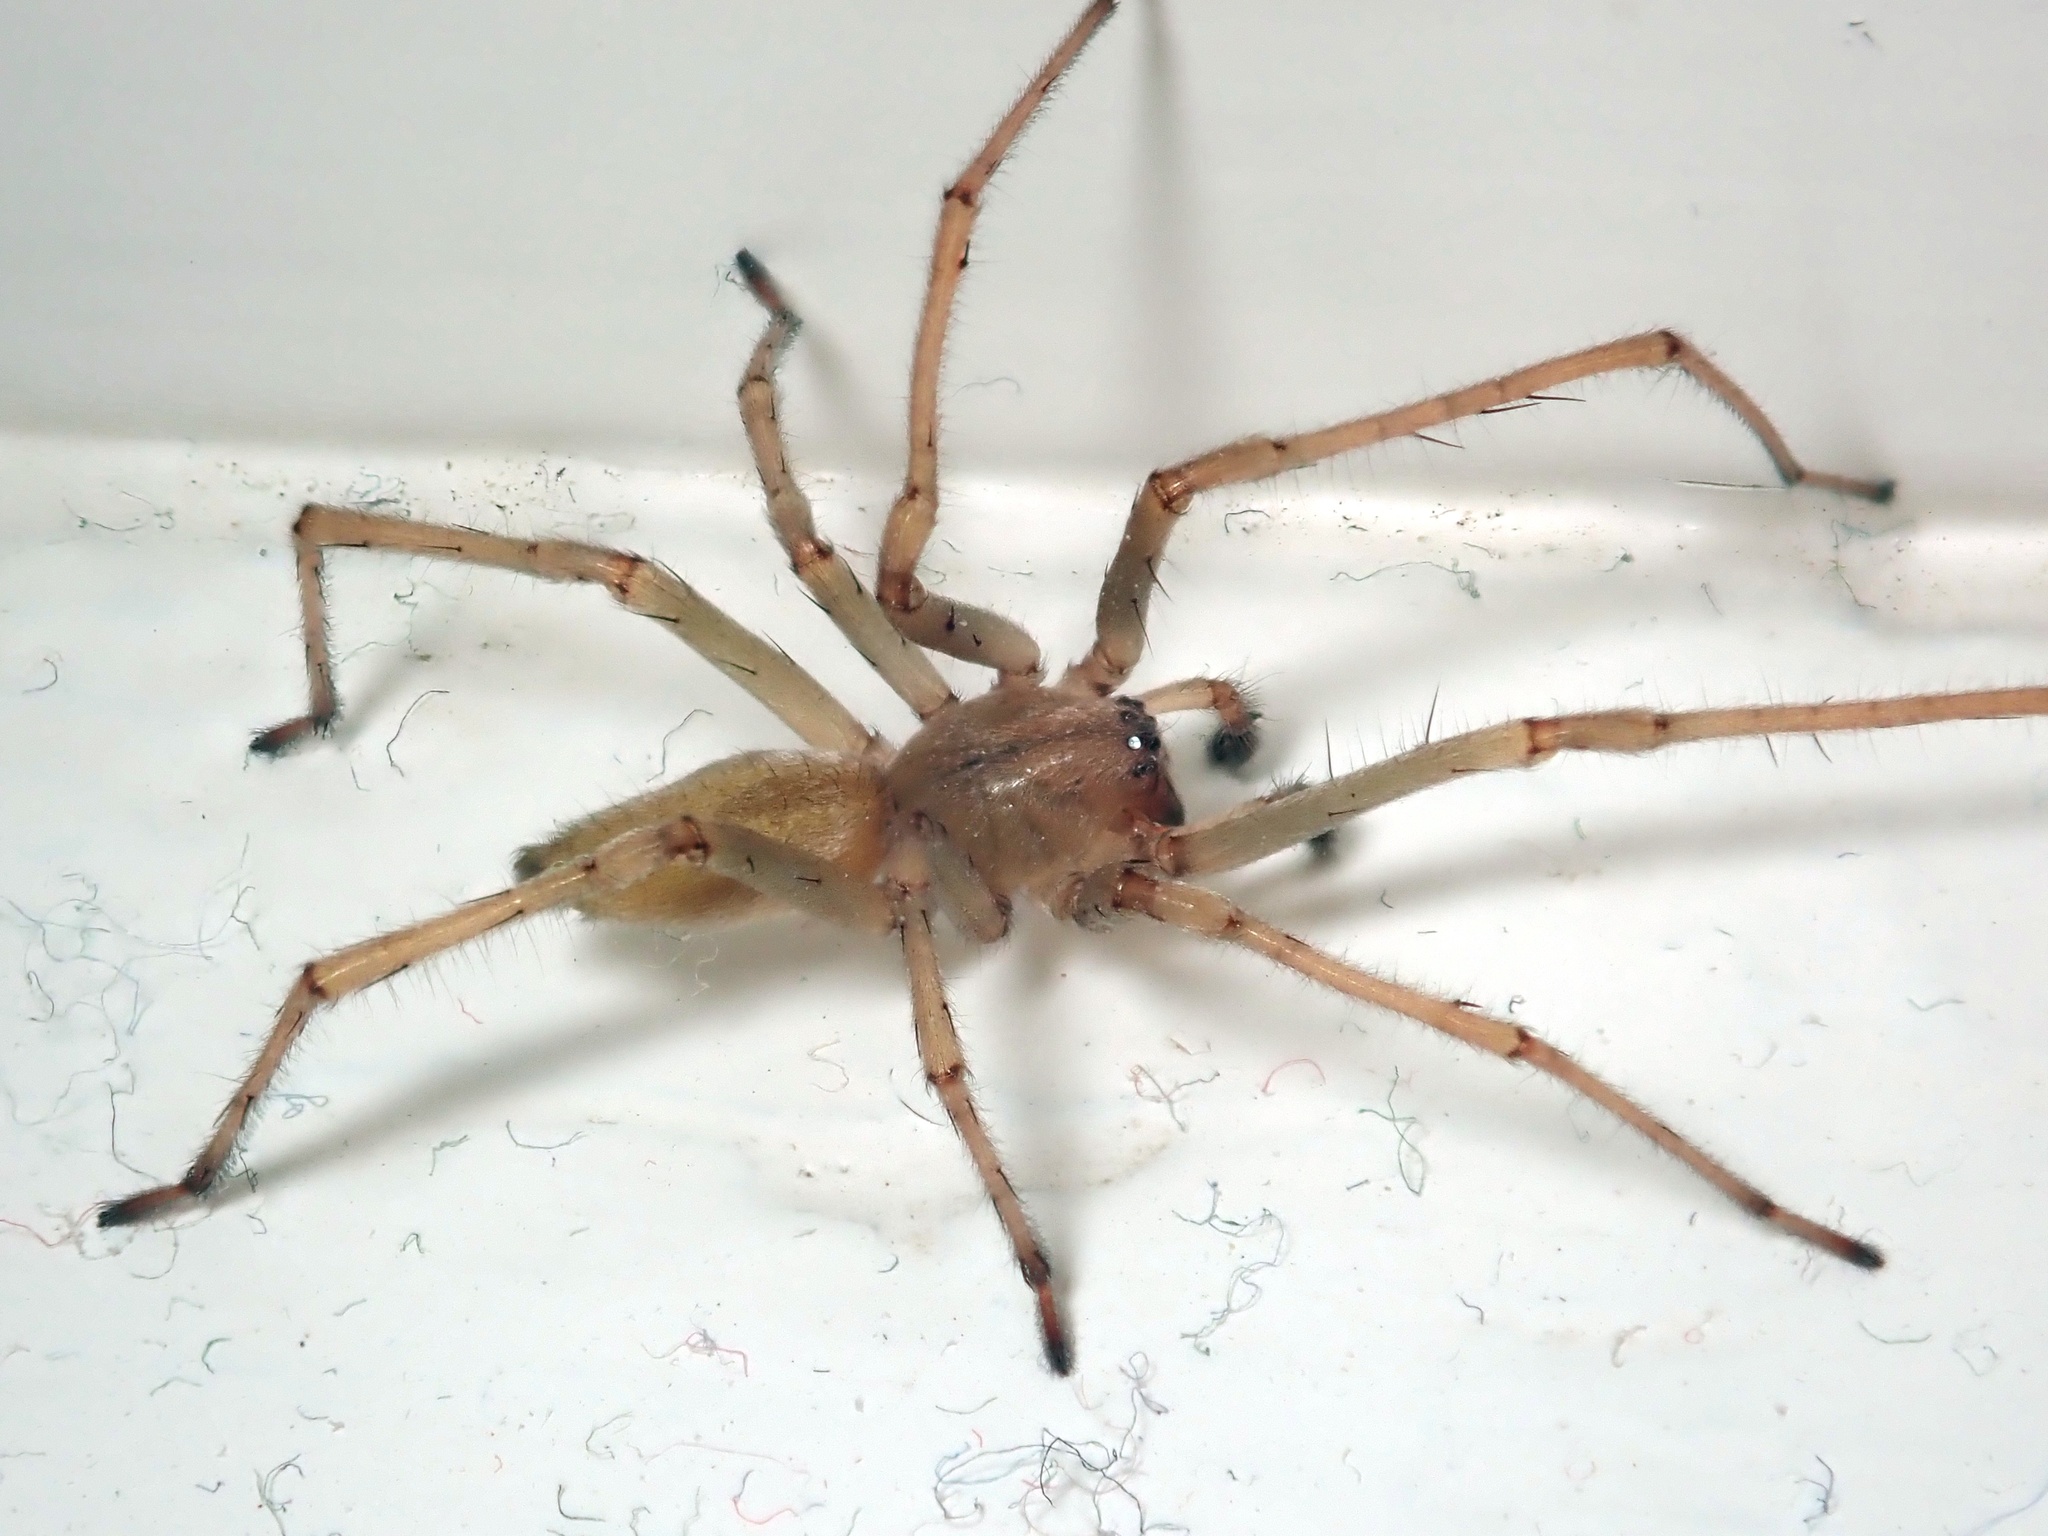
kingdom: Animalia
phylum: Arthropoda
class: Arachnida
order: Araneae
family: Cheiracanthiidae
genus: Cheiracanthium
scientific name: Cheiracanthium mildei
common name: Northern yellow sac spider
